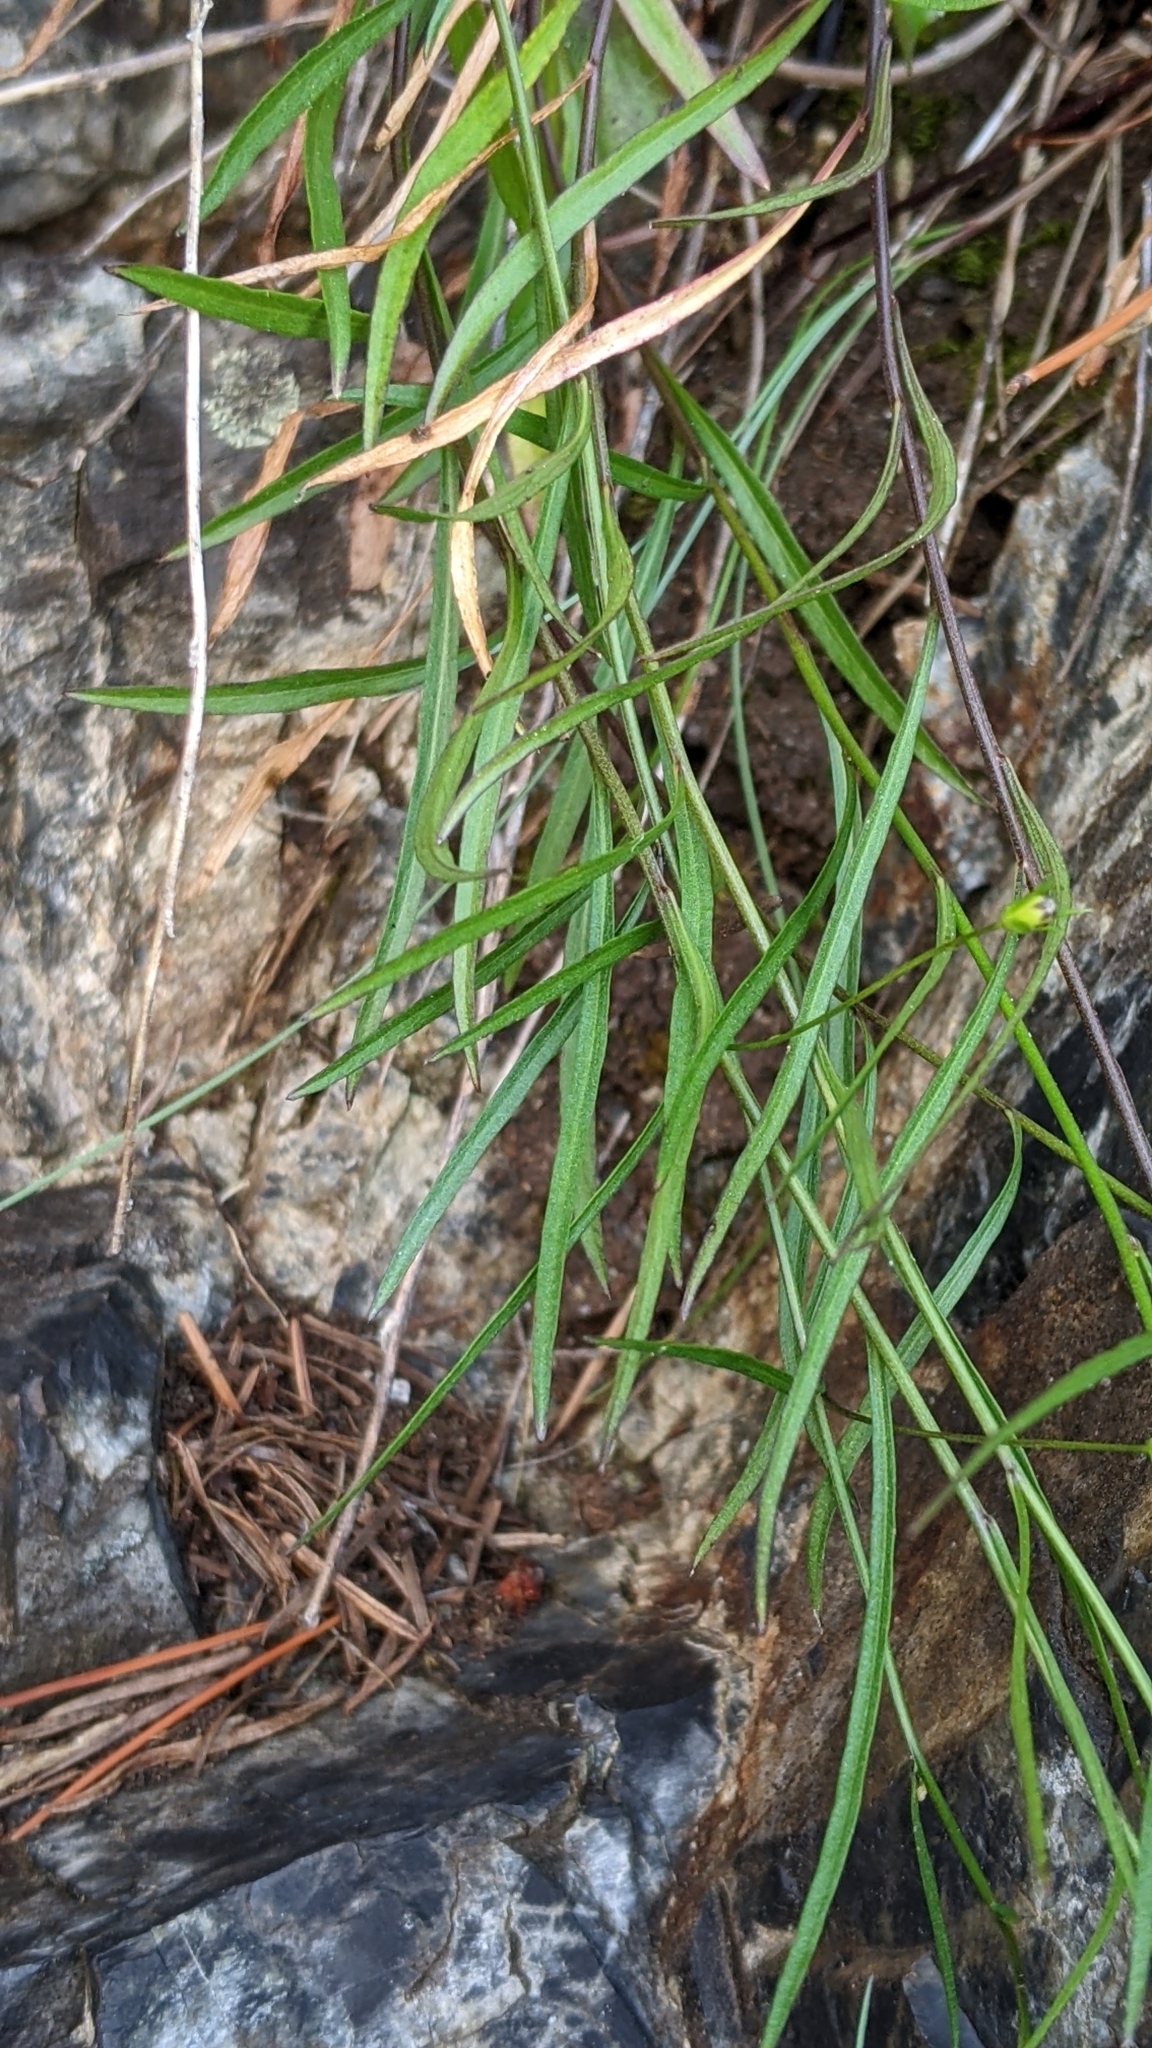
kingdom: Plantae
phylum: Tracheophyta
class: Magnoliopsida
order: Asterales
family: Campanulaceae
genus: Campanula
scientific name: Campanula alaskana
